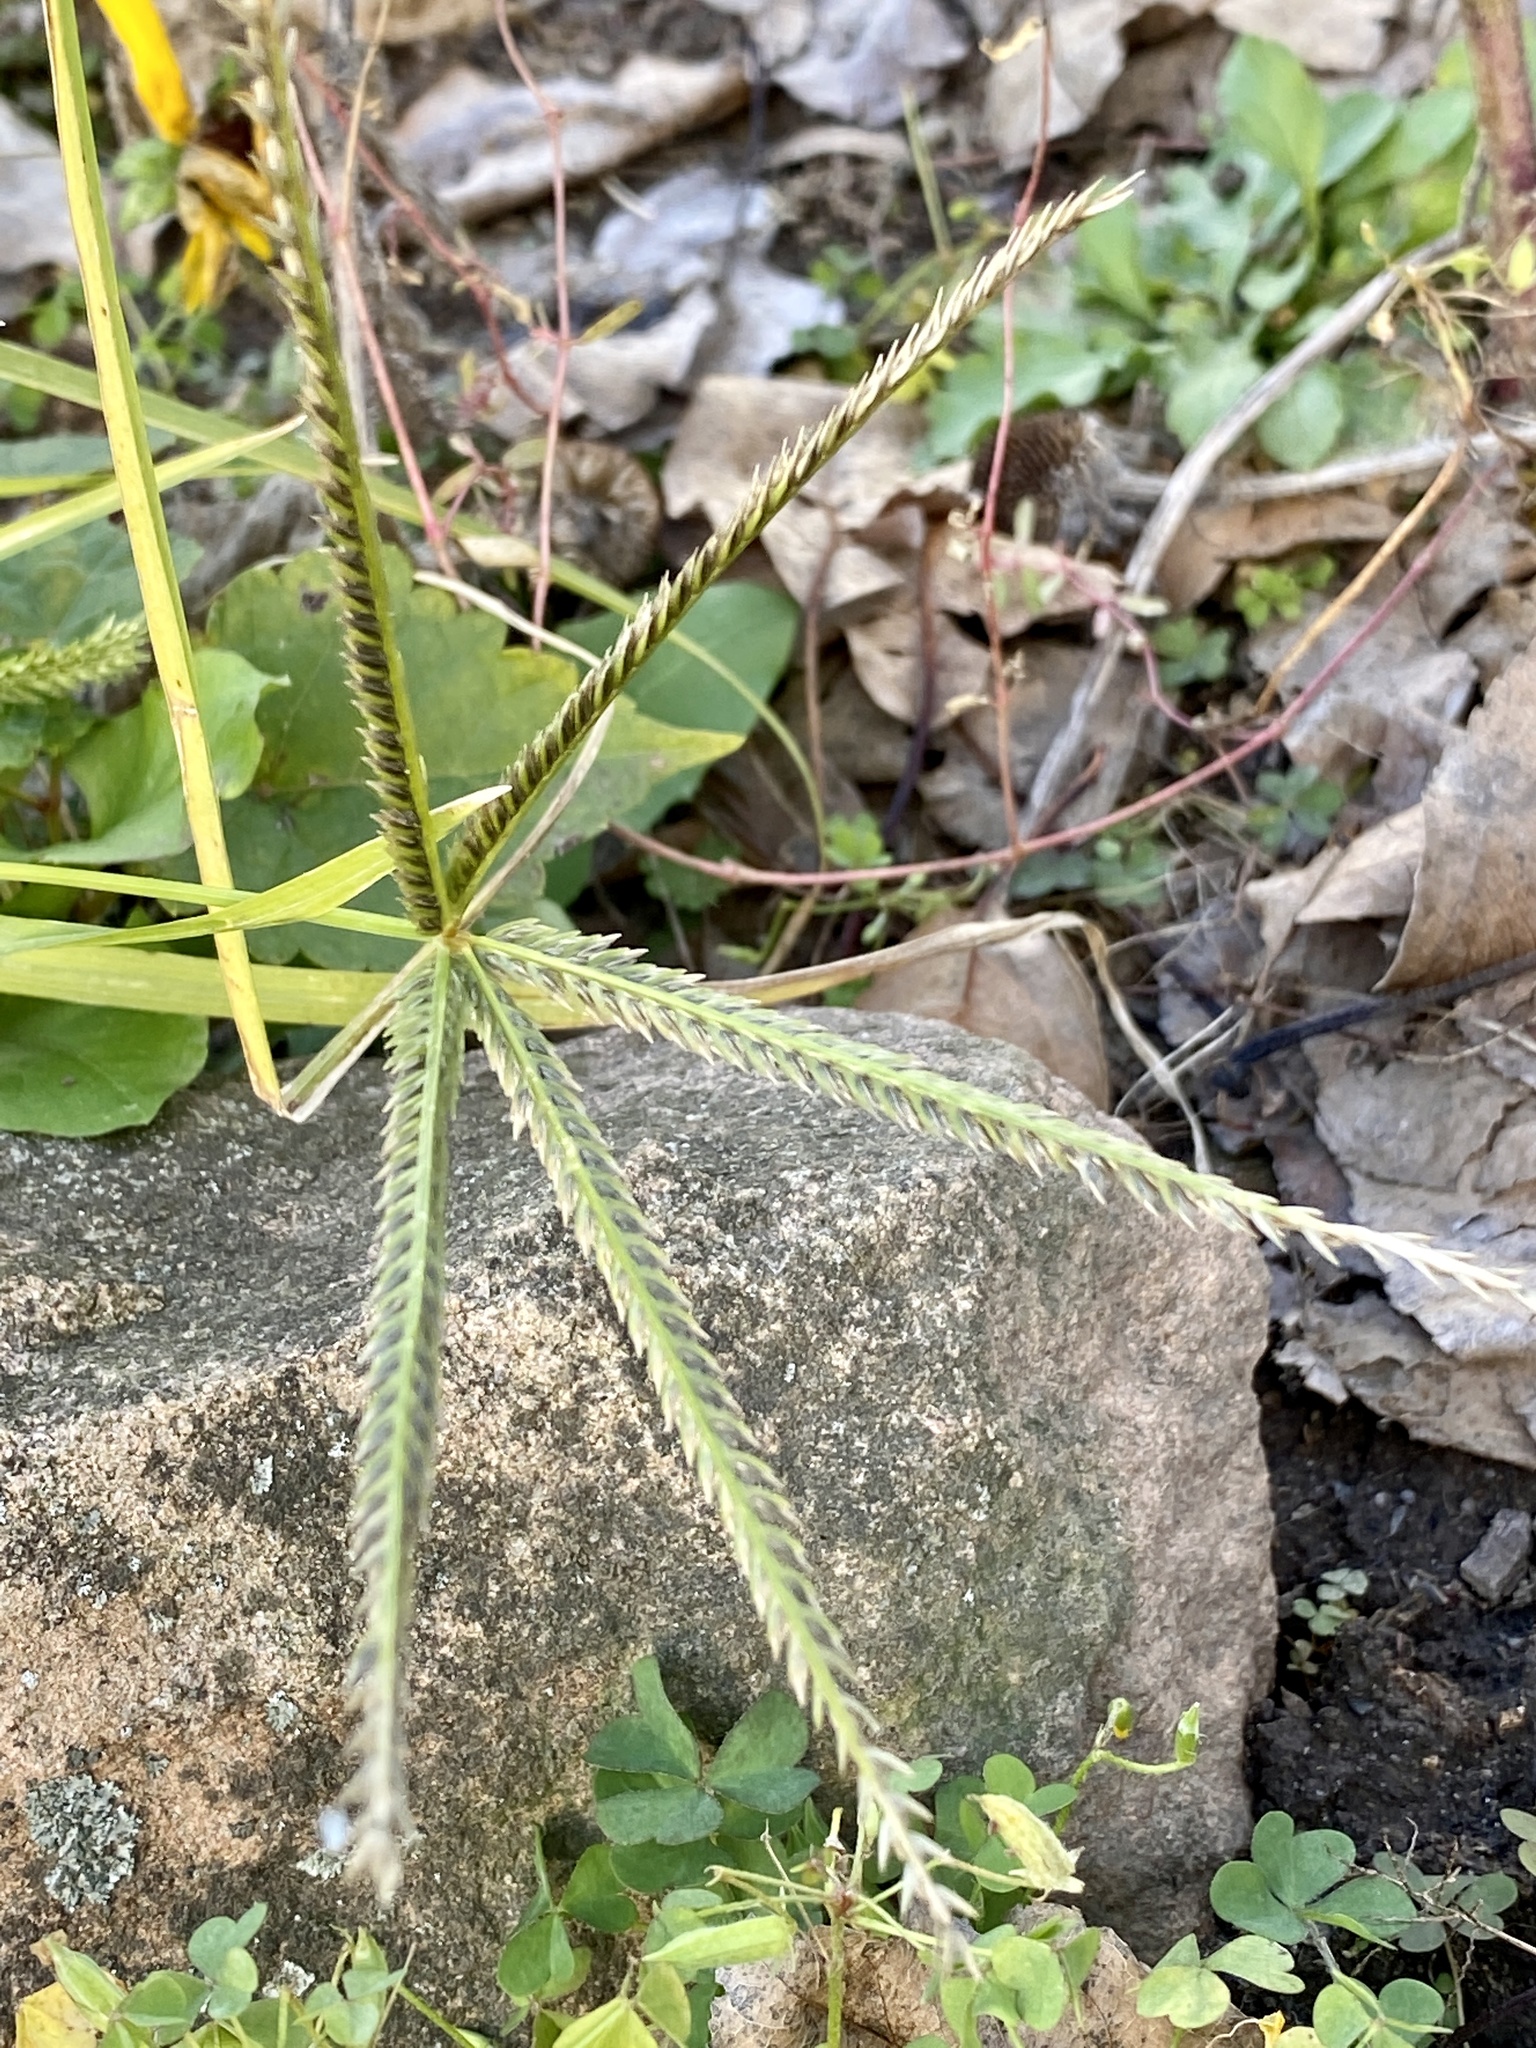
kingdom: Plantae
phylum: Tracheophyta
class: Liliopsida
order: Poales
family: Poaceae
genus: Eleusine
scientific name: Eleusine indica
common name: Yard-grass
